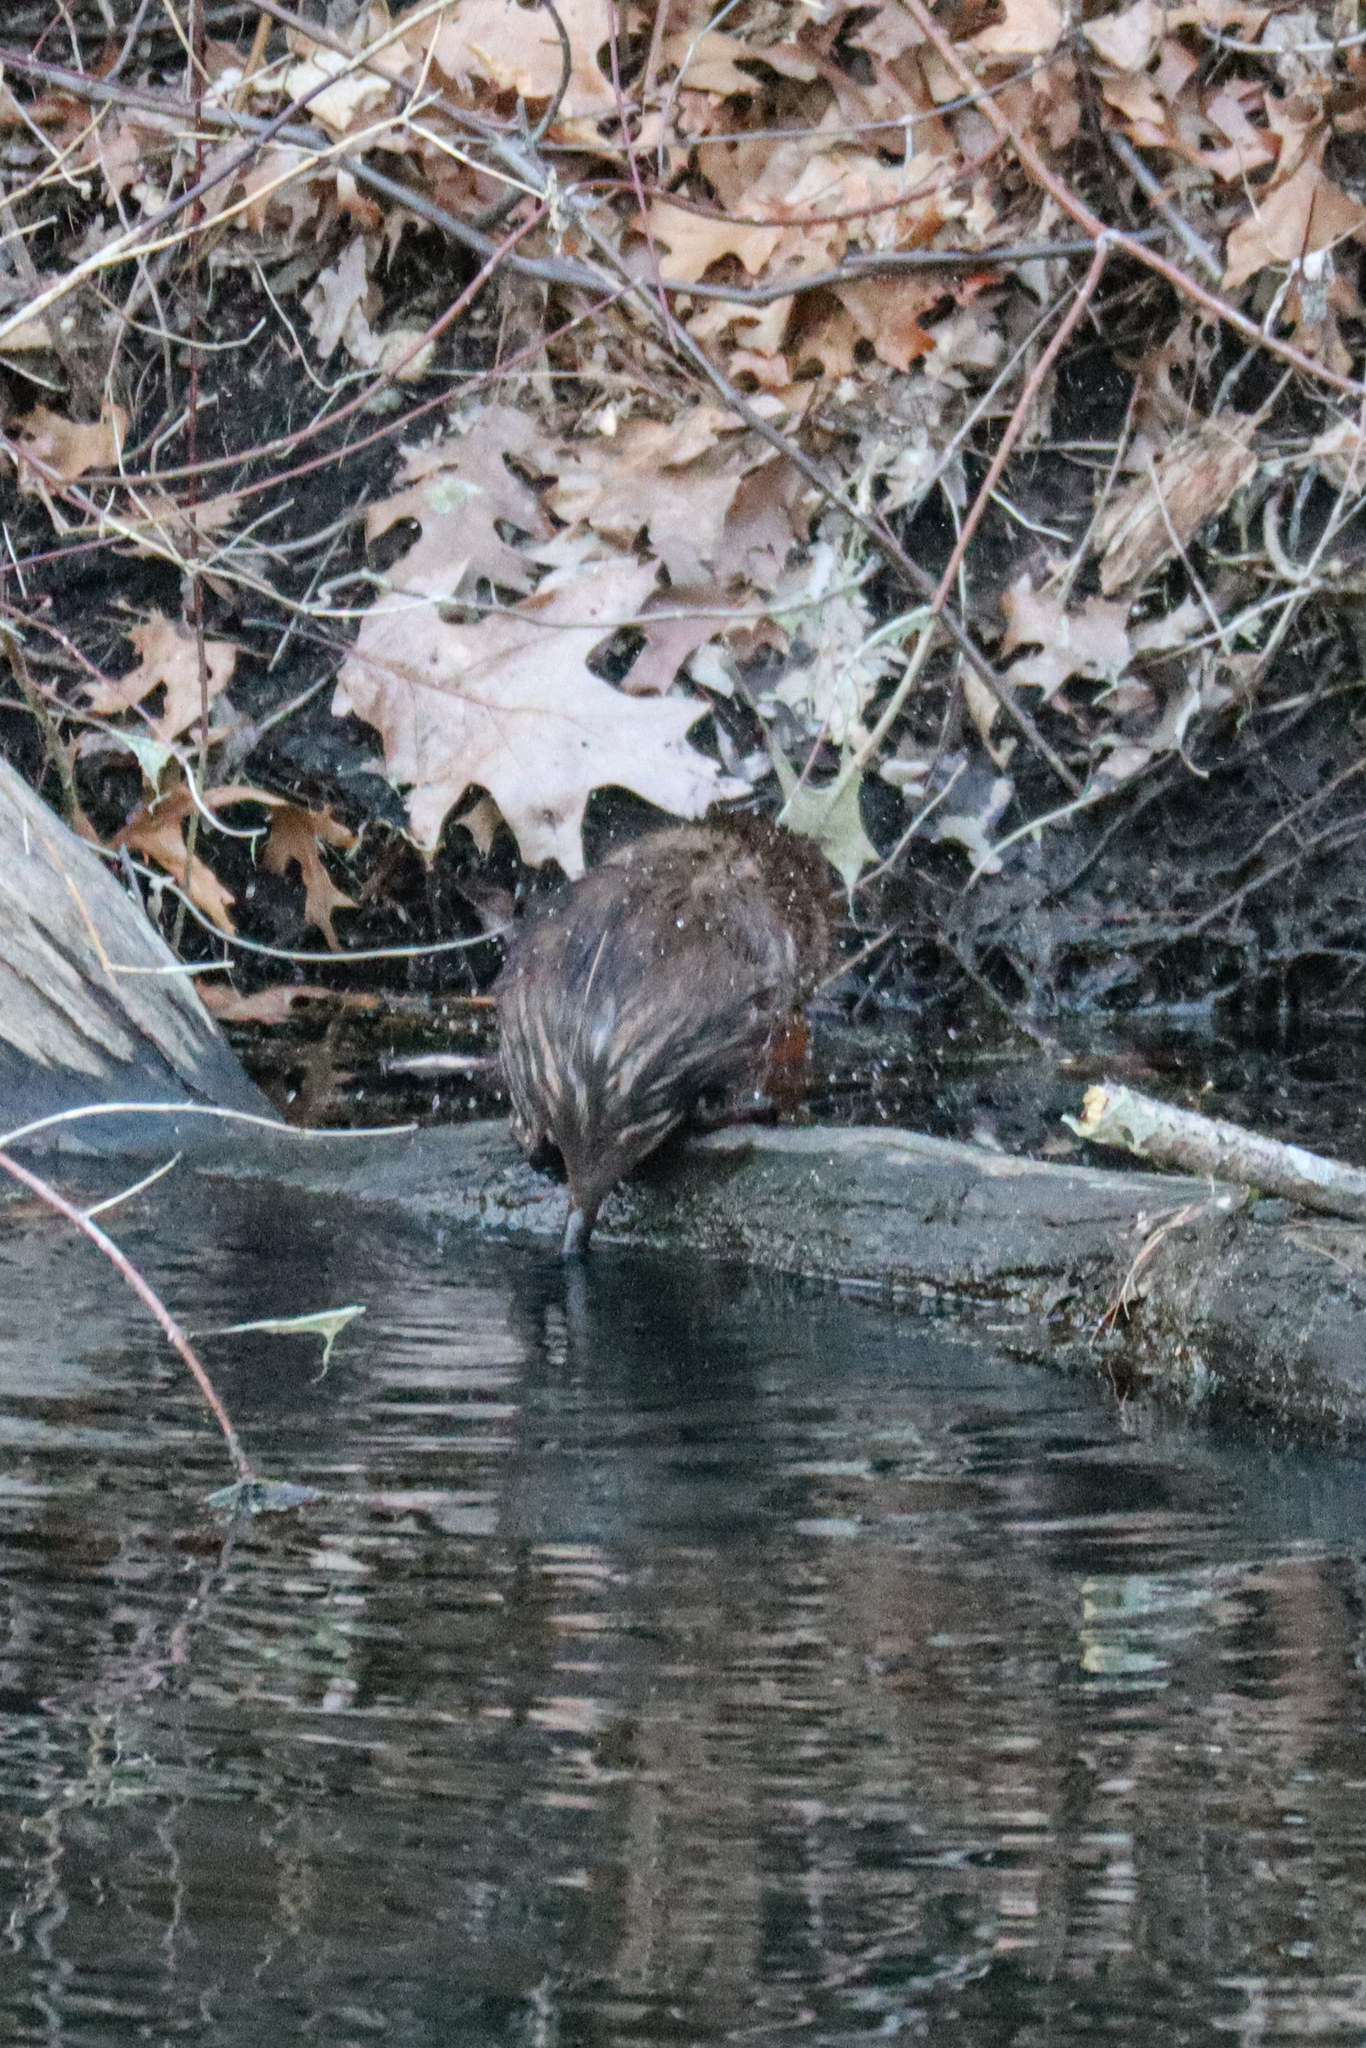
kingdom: Animalia
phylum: Chordata
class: Mammalia
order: Rodentia
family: Cricetidae
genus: Ondatra
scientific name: Ondatra zibethicus
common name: Muskrat
